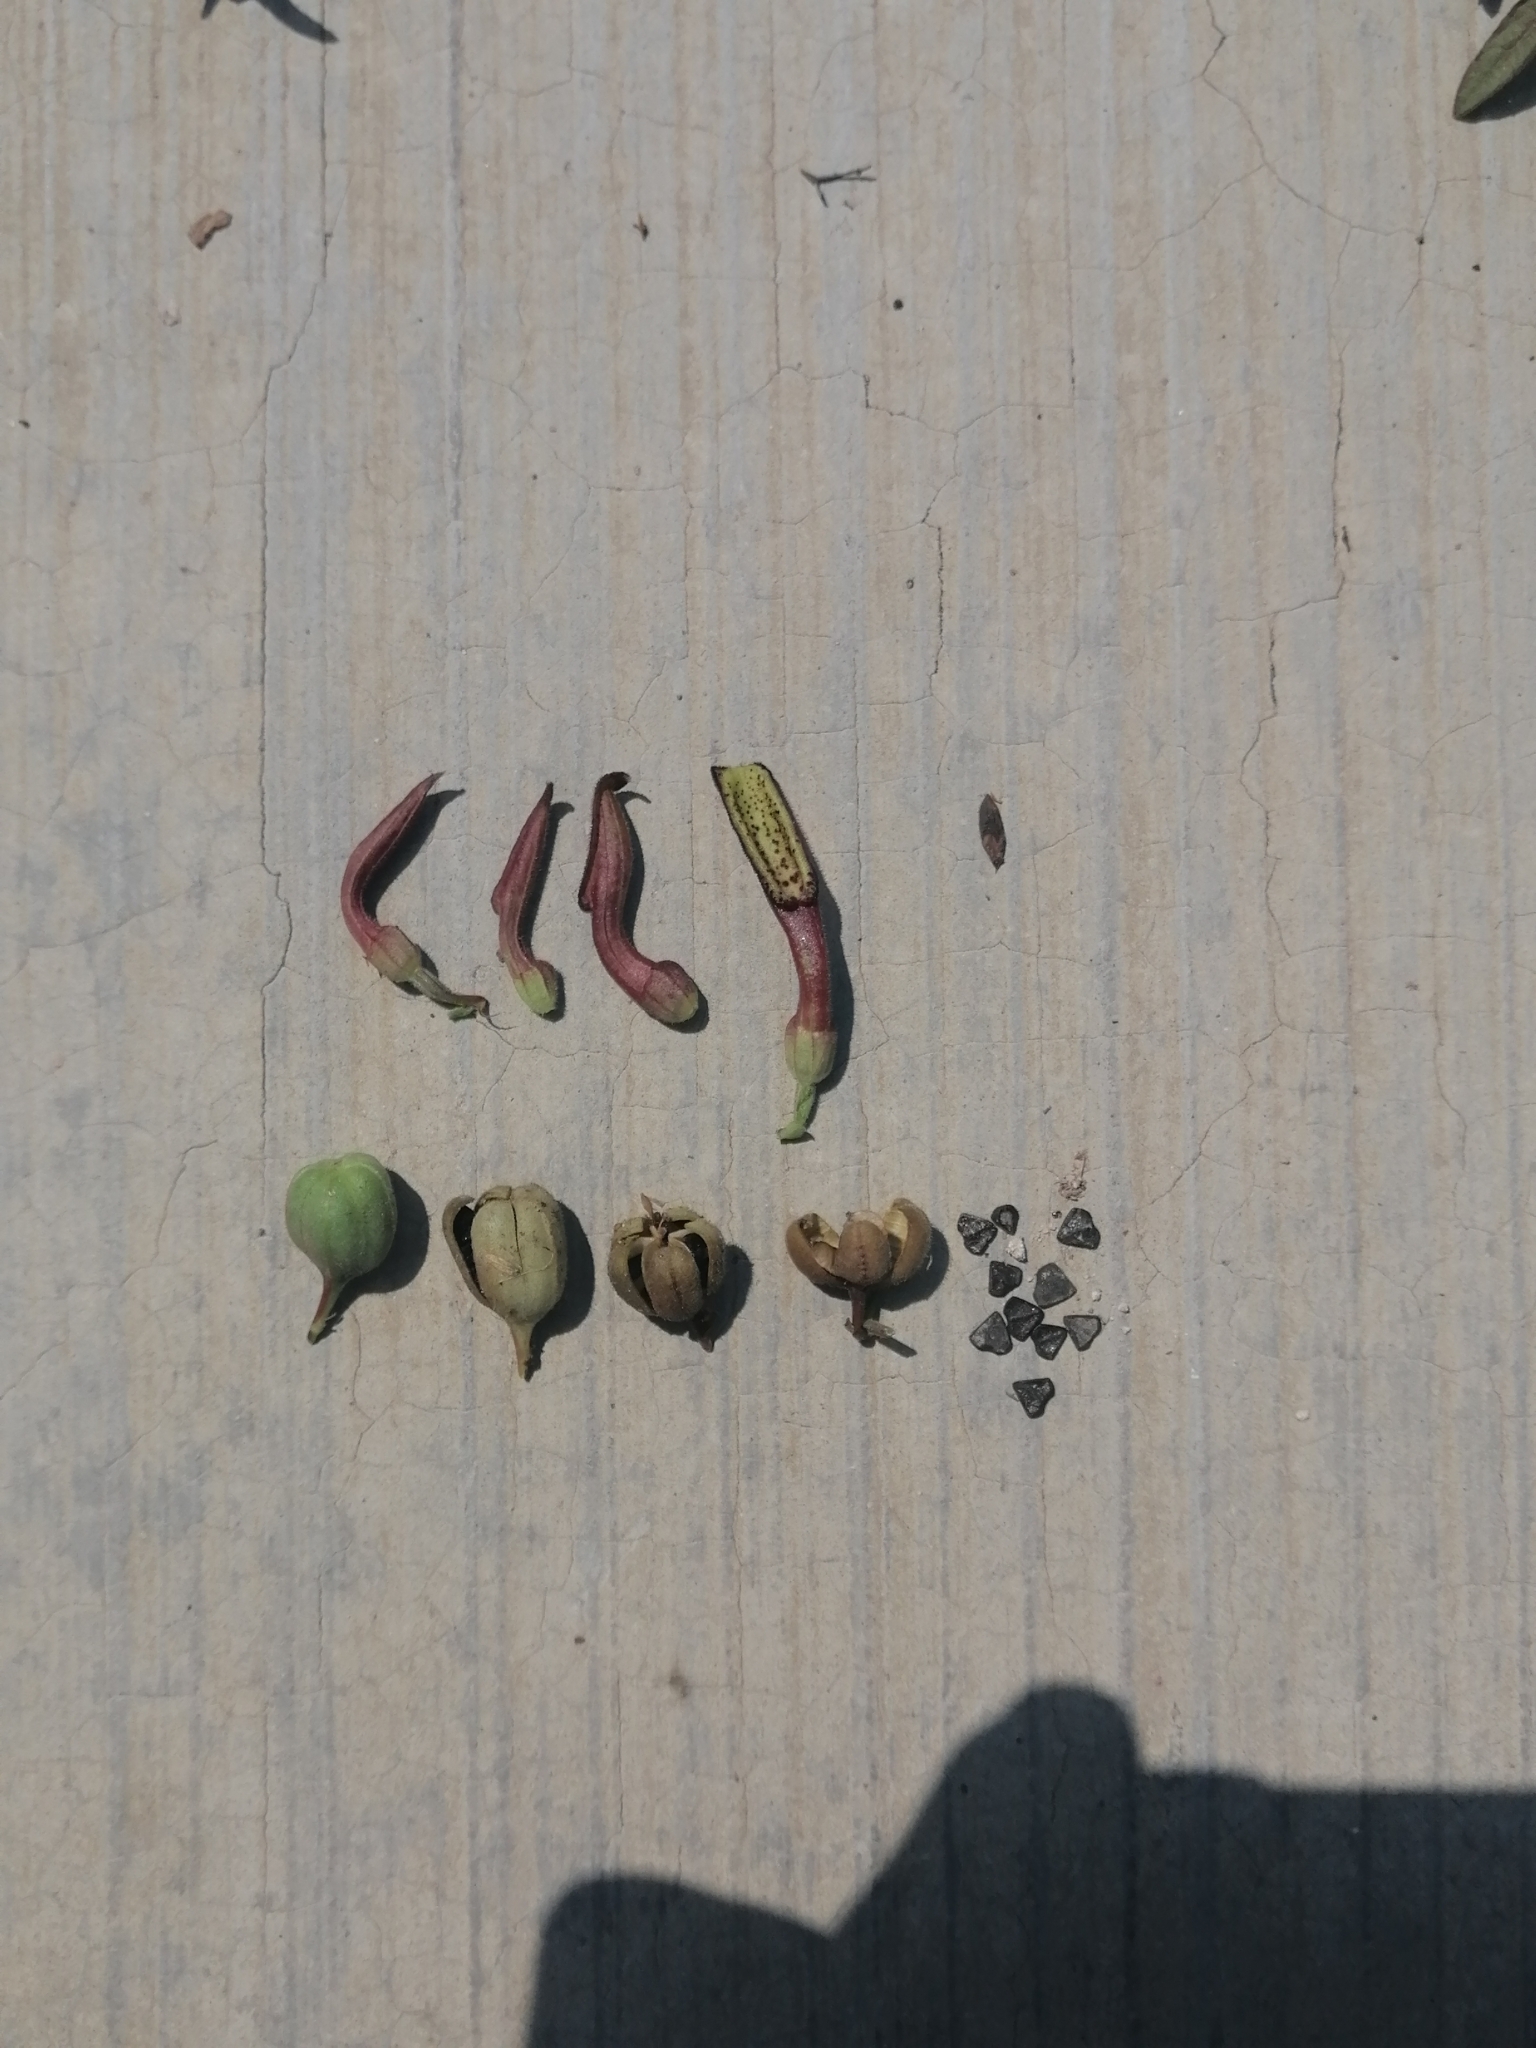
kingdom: Plantae
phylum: Tracheophyta
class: Magnoliopsida
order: Piperales
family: Aristolochiaceae
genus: Aristolochia
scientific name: Aristolochia versabilifolia
